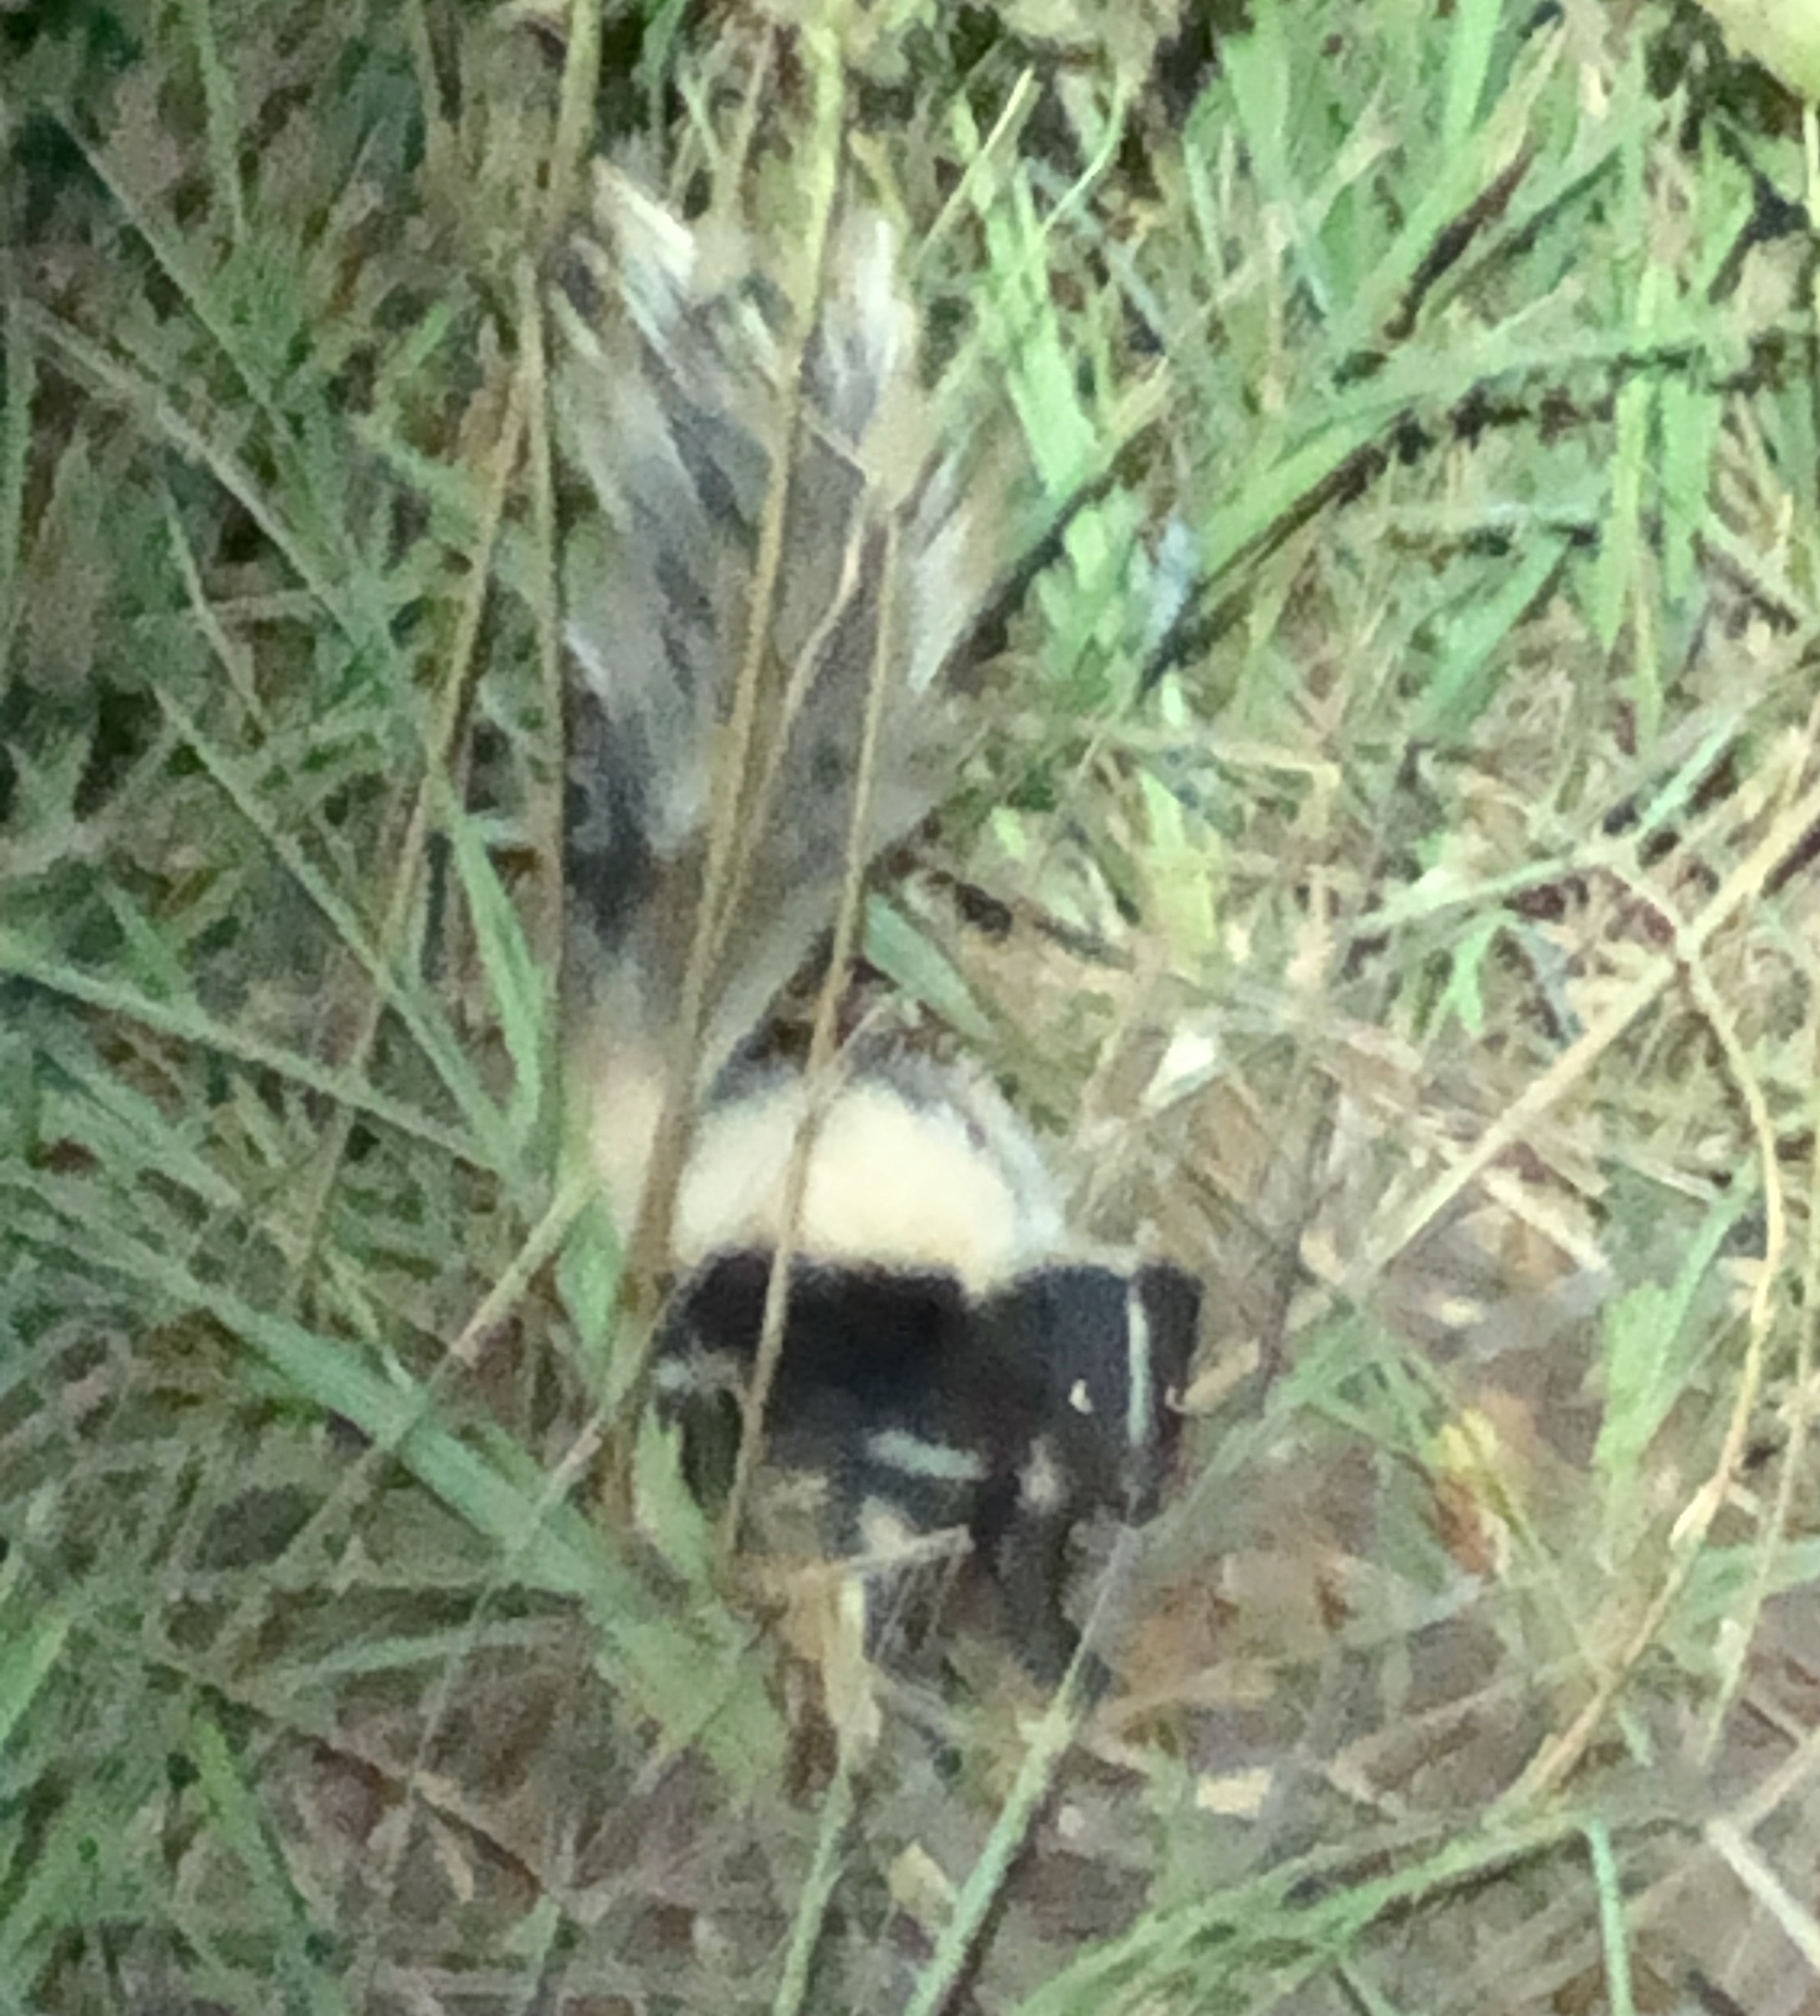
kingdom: Animalia
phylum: Chordata
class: Mammalia
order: Carnivora
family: Mephitidae
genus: Mephitis
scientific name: Mephitis mephitis
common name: Striped skunk
